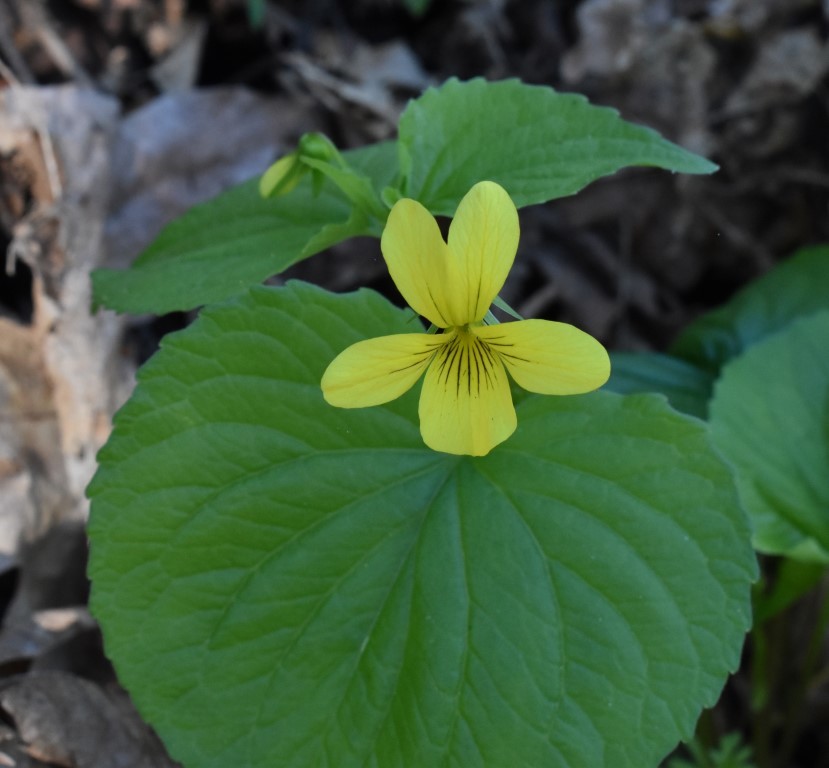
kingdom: Plantae
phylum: Tracheophyta
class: Magnoliopsida
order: Malpighiales
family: Violaceae
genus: Viola
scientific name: Viola glabella
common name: Stream violet
